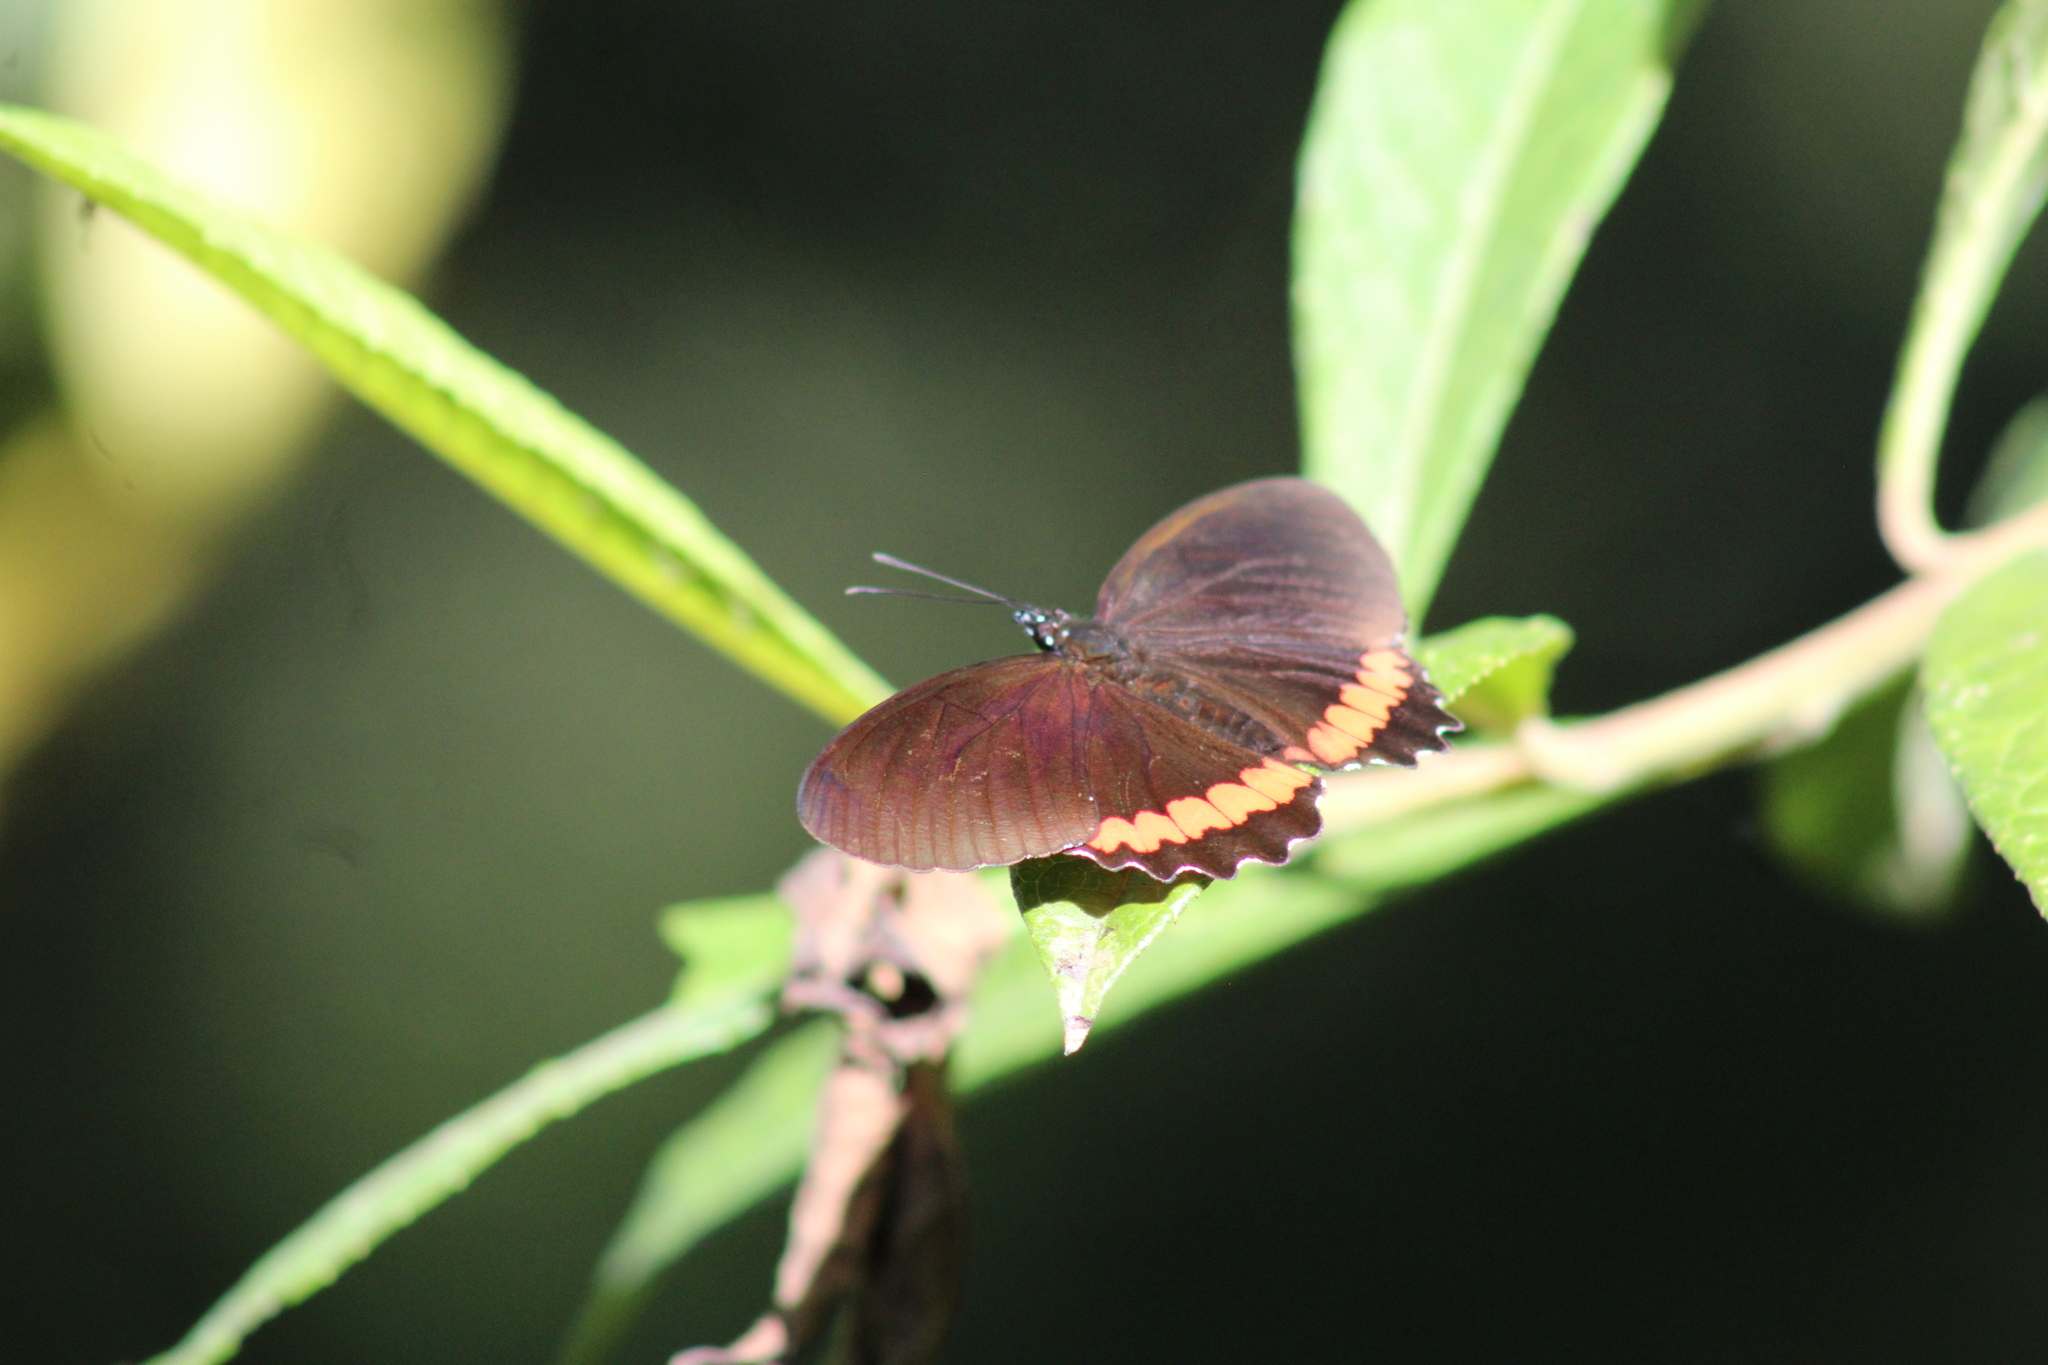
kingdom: Animalia
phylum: Arthropoda
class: Insecta
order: Lepidoptera
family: Nymphalidae
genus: Biblis
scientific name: Biblis aganisa
